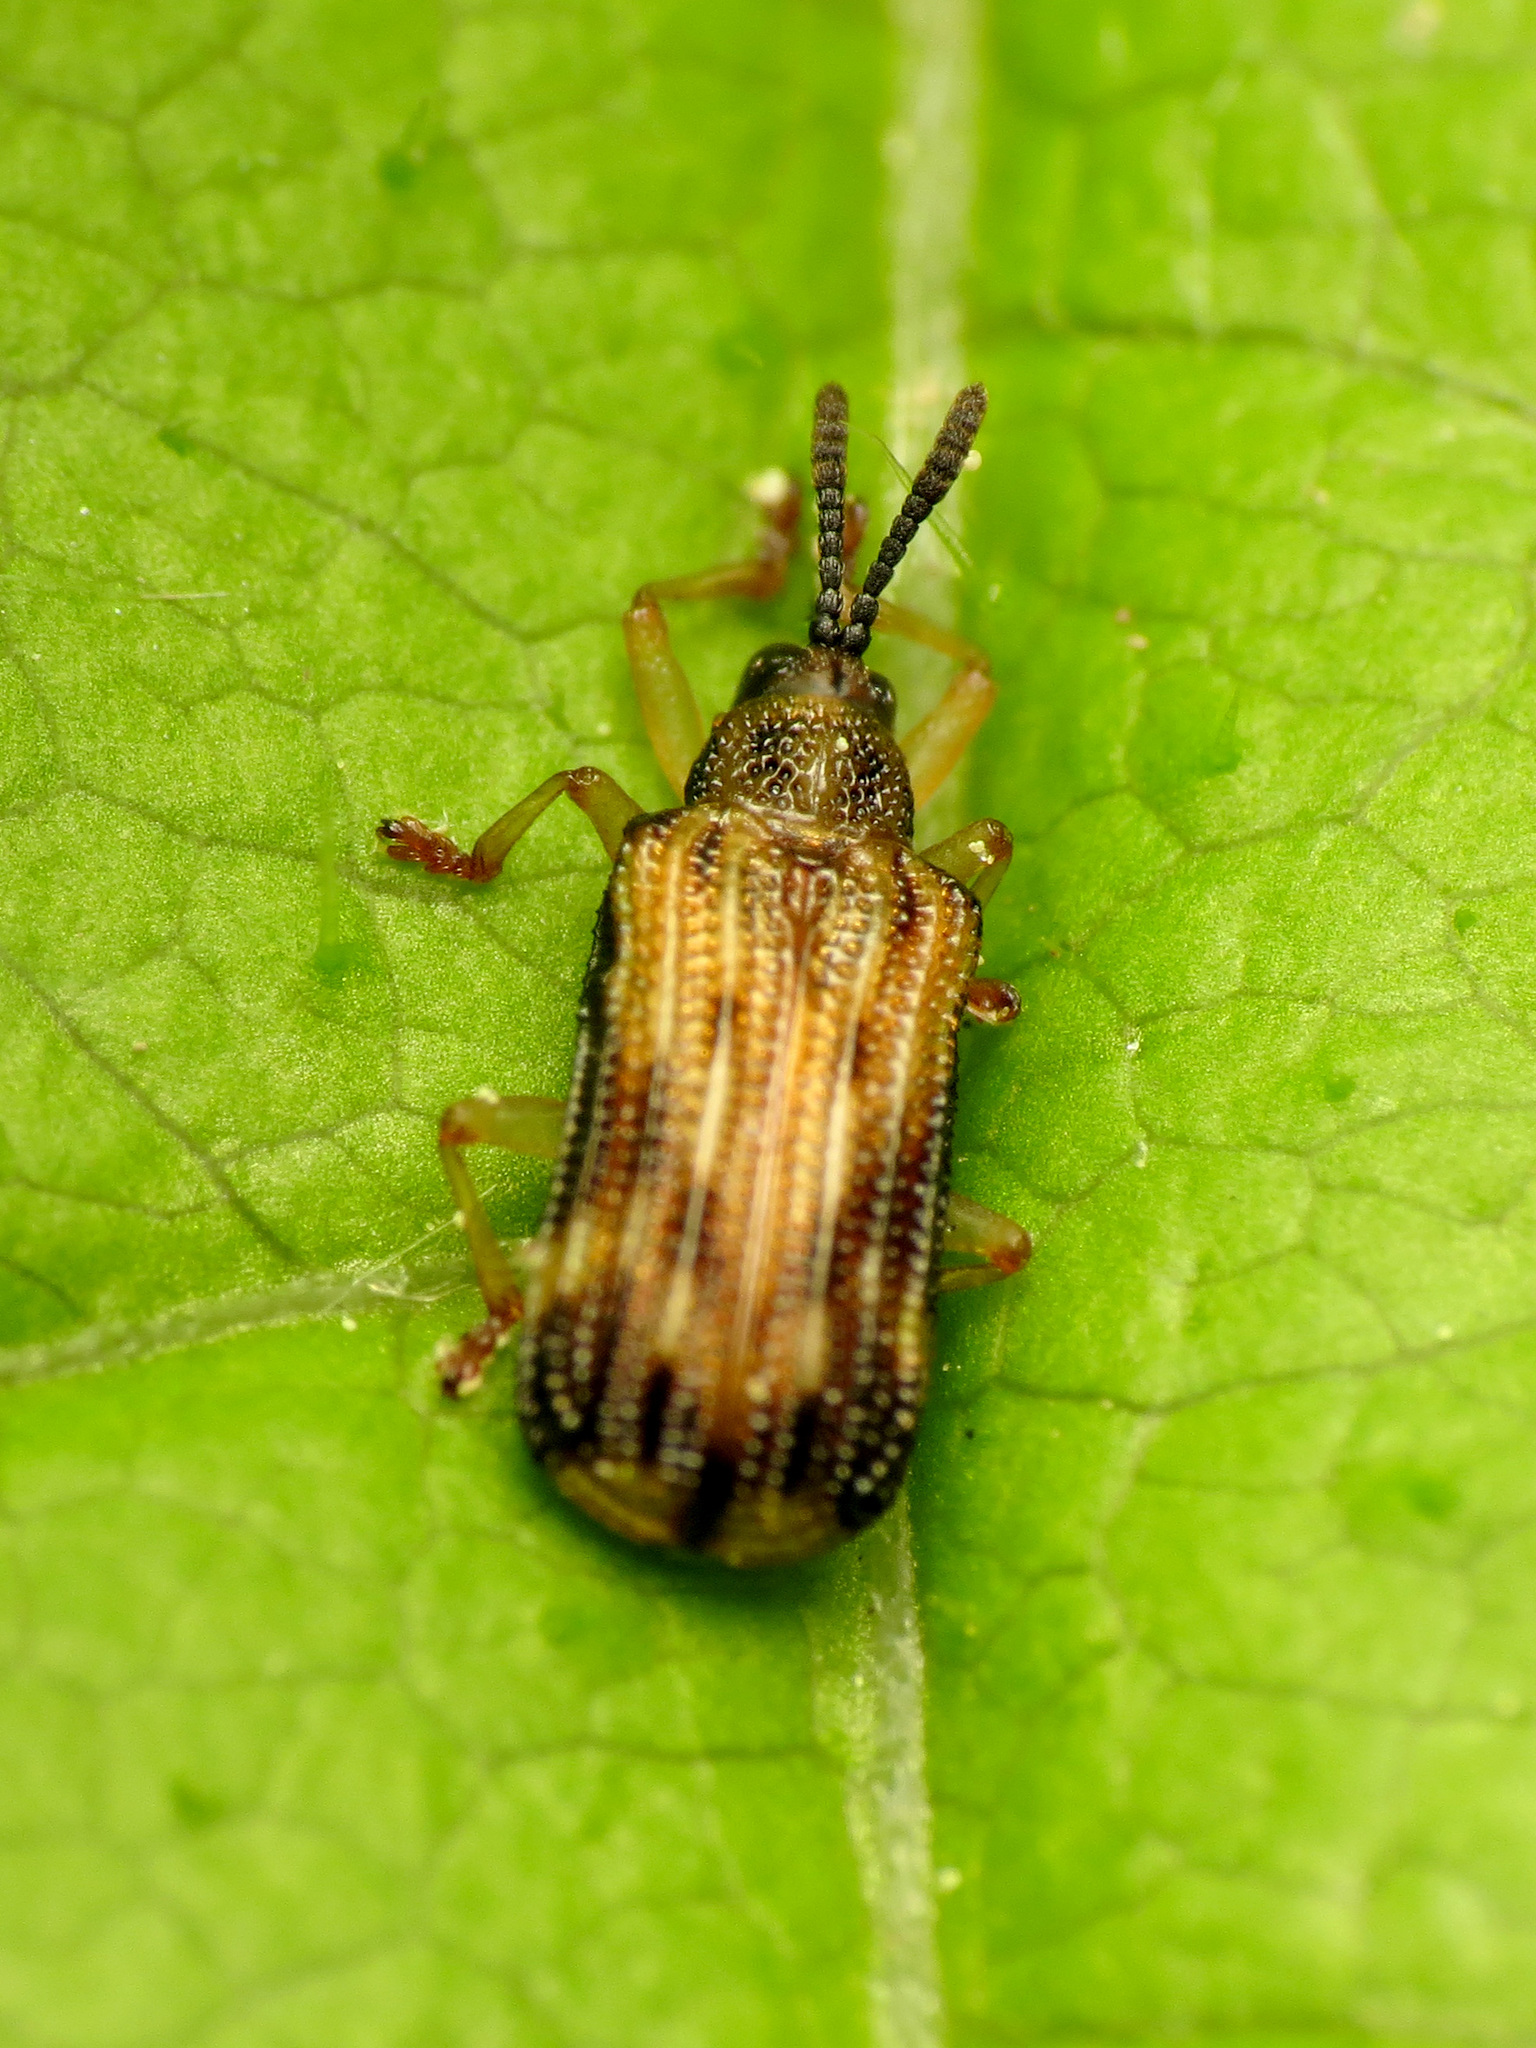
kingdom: Animalia
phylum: Arthropoda
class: Insecta
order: Coleoptera
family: Chrysomelidae
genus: Sumitrosis
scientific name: Sumitrosis inaequalis
